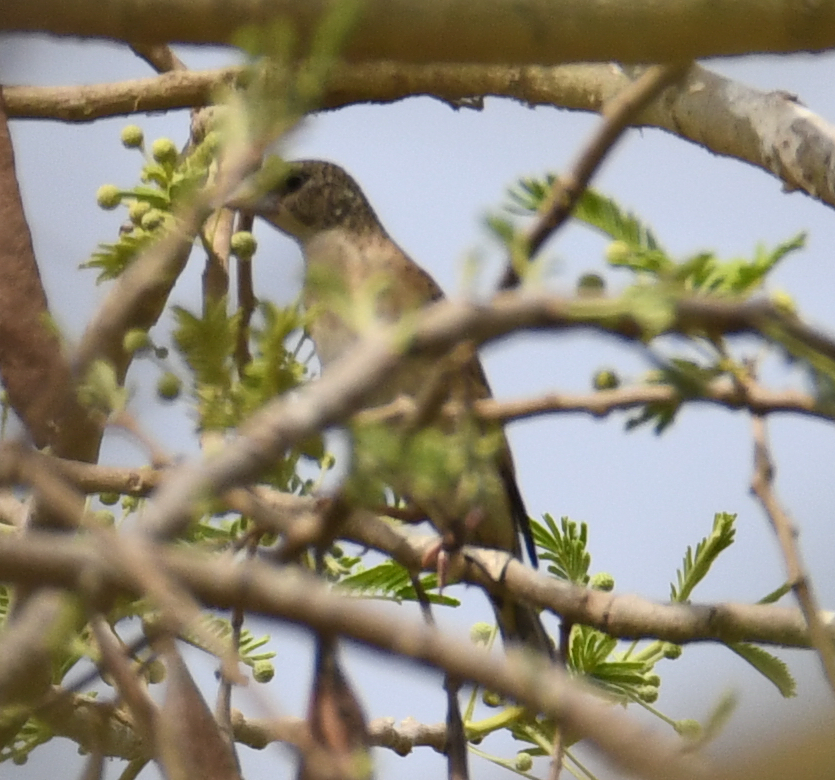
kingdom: Animalia
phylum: Chordata
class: Aves
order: Passeriformes
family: Estrildidae
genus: Amadina
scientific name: Amadina fasciata
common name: Cut-throat finch
